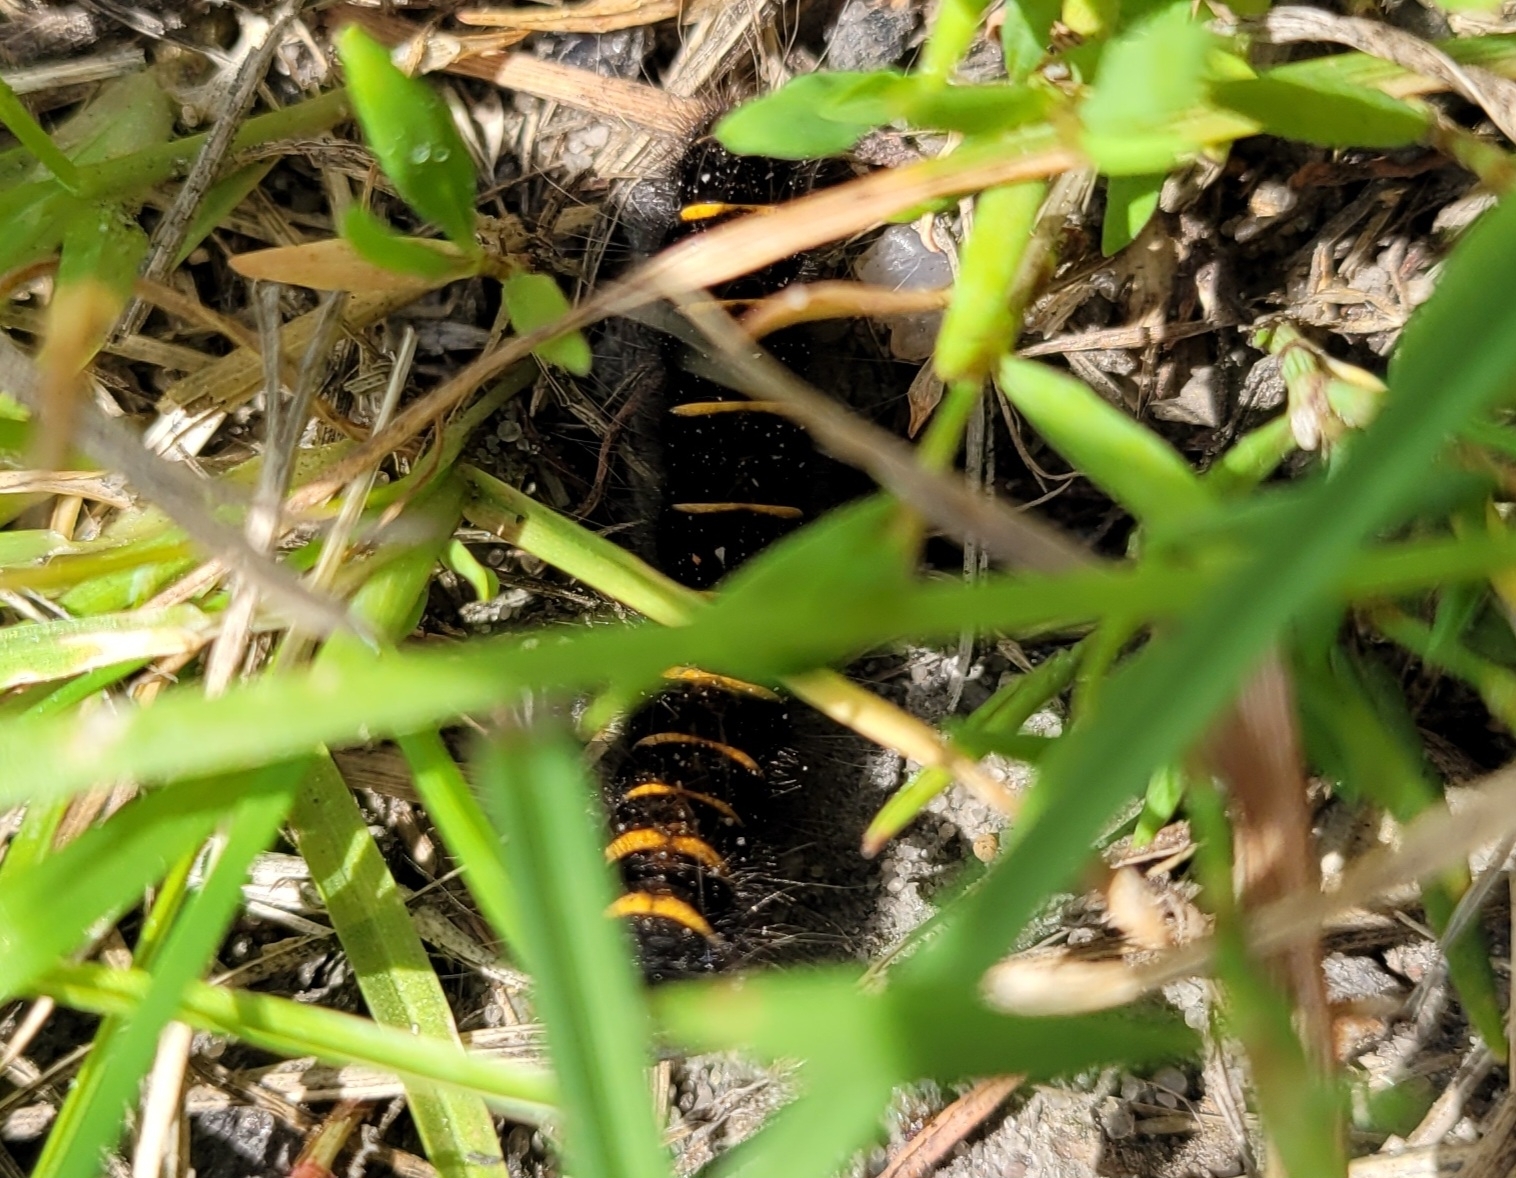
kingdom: Animalia
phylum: Arthropoda
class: Insecta
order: Lepidoptera
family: Lasiocampidae
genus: Macrothylacia
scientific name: Macrothylacia rubi
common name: Fox moth
